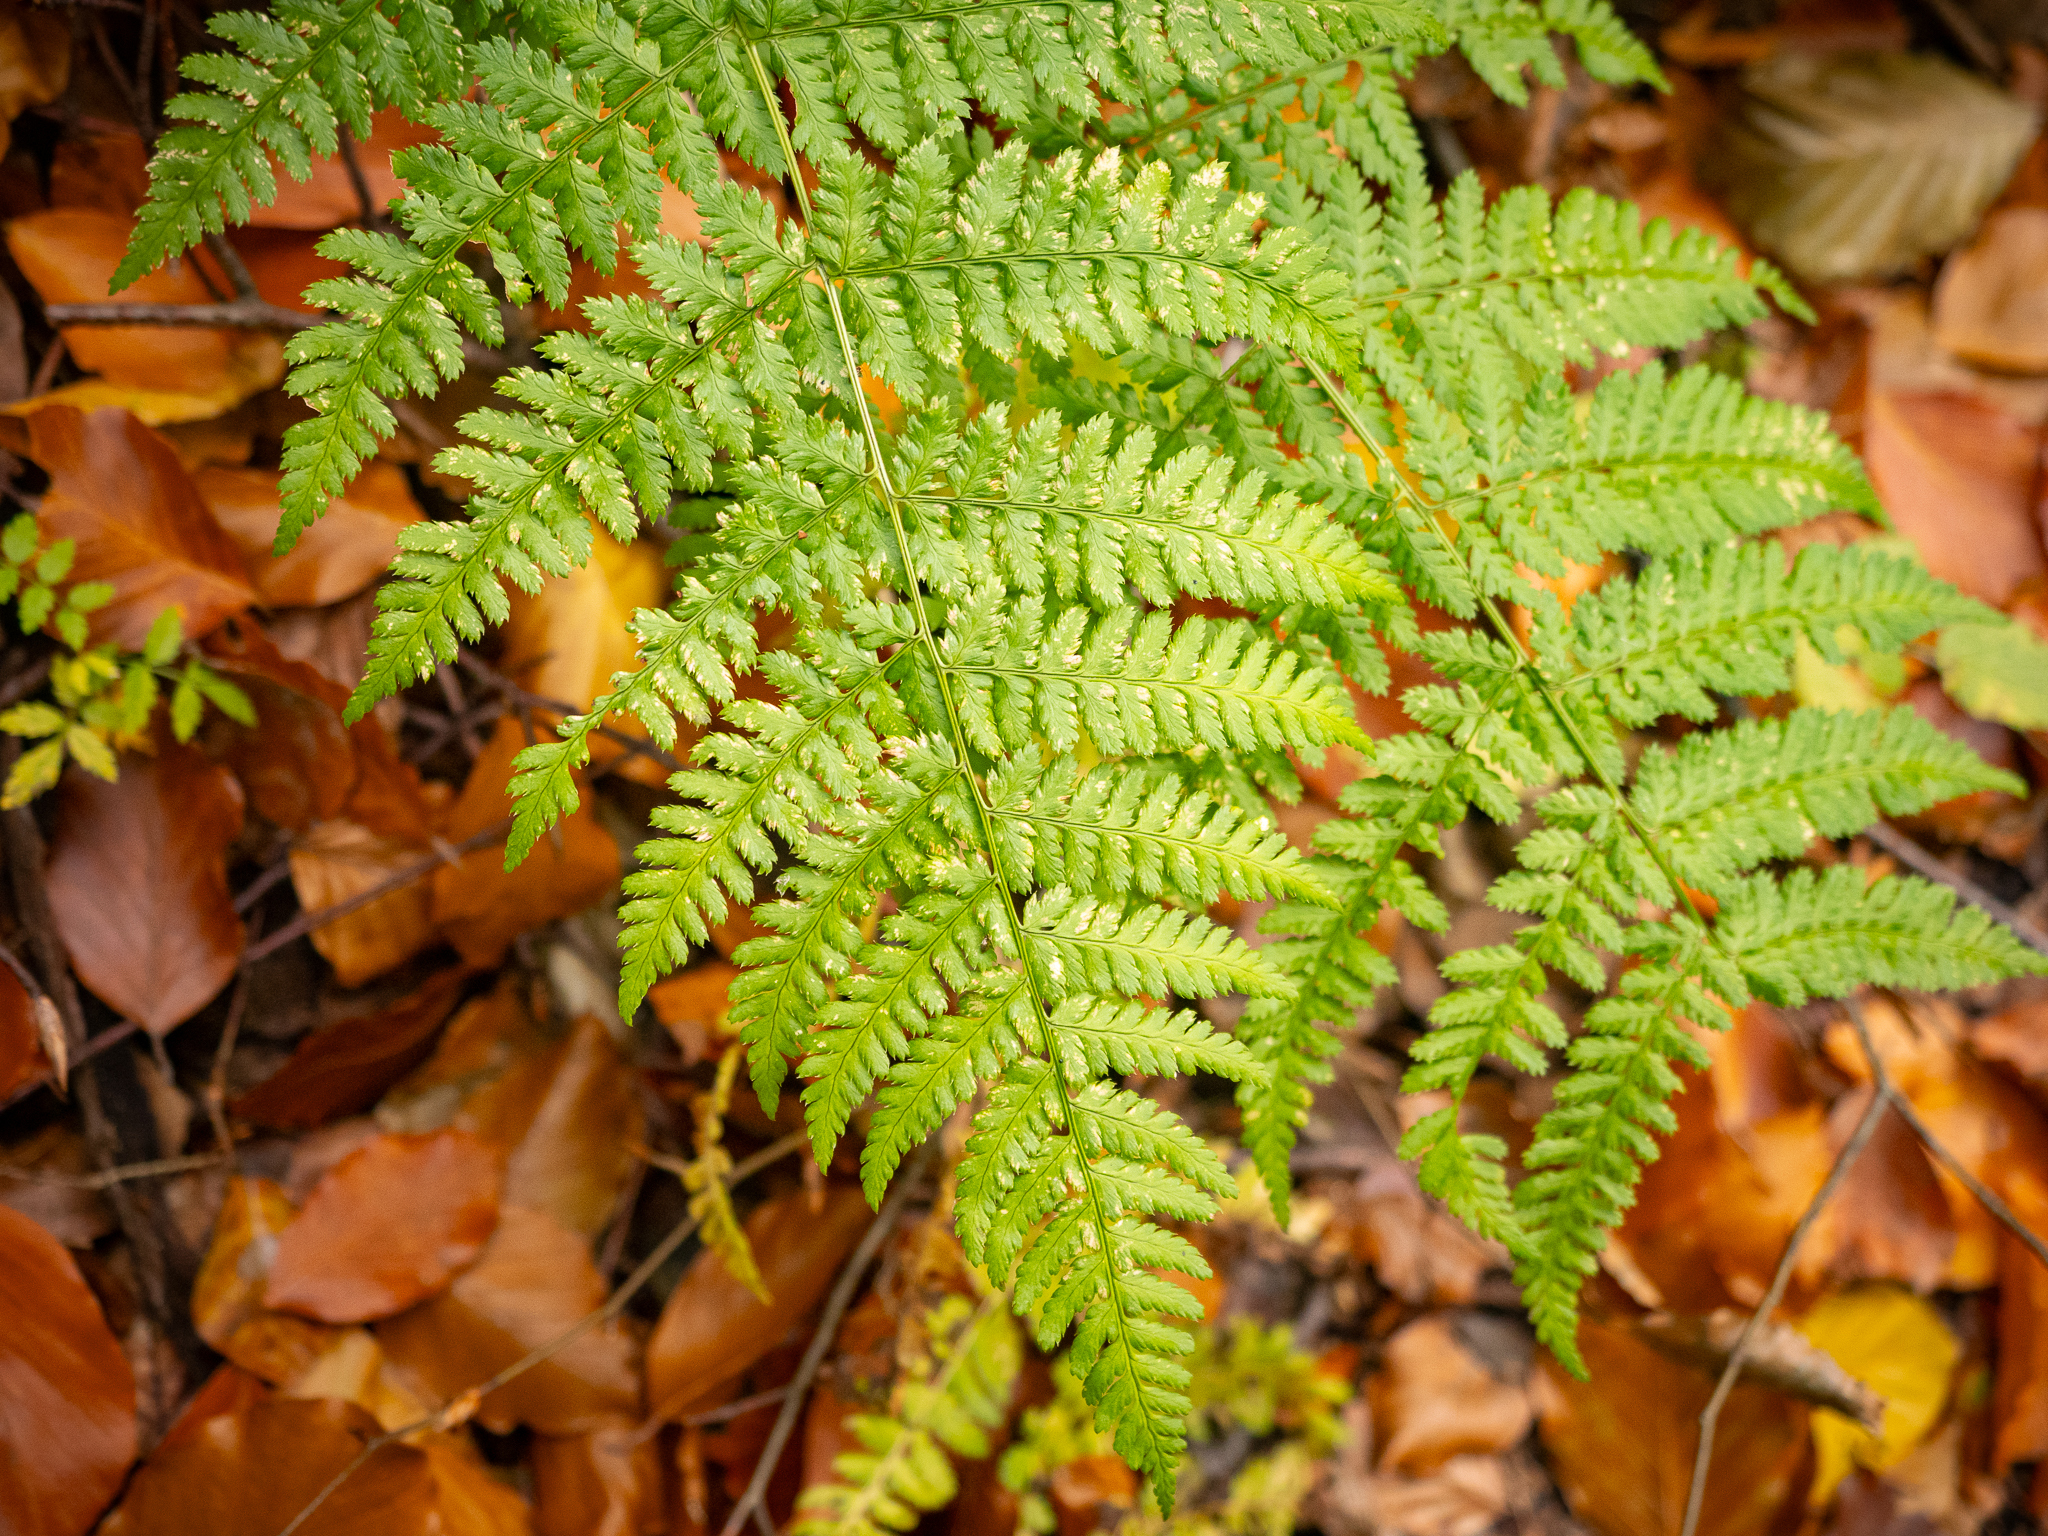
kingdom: Plantae
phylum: Tracheophyta
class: Polypodiopsida
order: Polypodiales
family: Dryopteridaceae
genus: Dryopteris
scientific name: Dryopteris dilatata
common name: Broad buckler-fern
